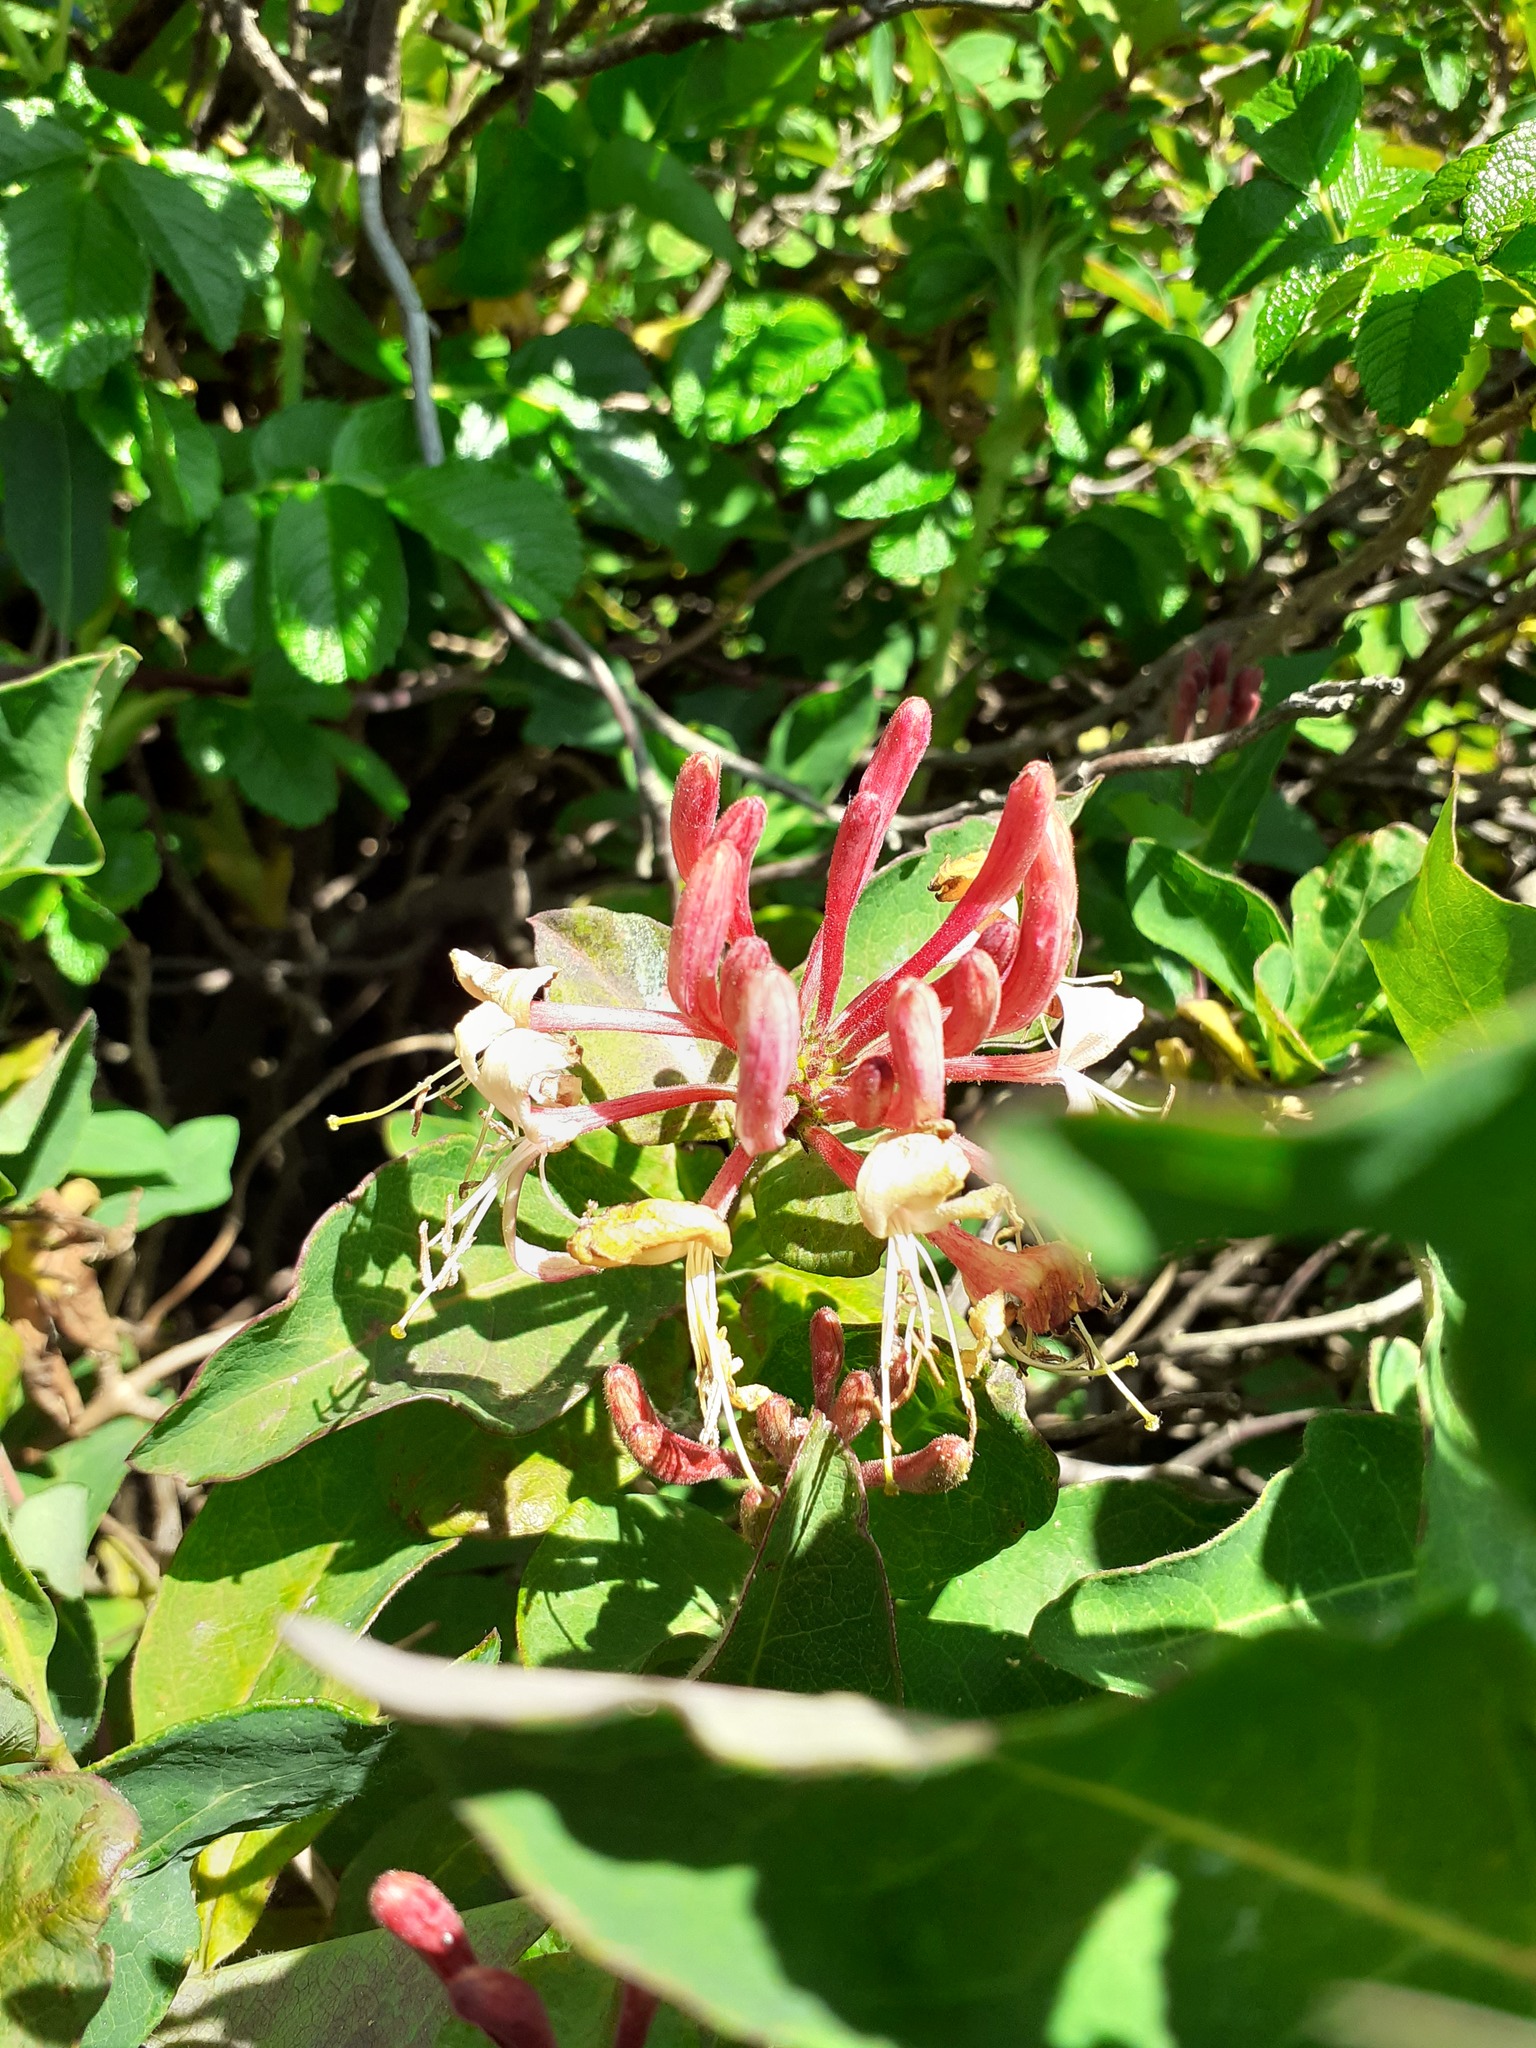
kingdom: Plantae
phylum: Tracheophyta
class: Magnoliopsida
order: Dipsacales
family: Caprifoliaceae
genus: Lonicera
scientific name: Lonicera periclymenum
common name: European honeysuckle
